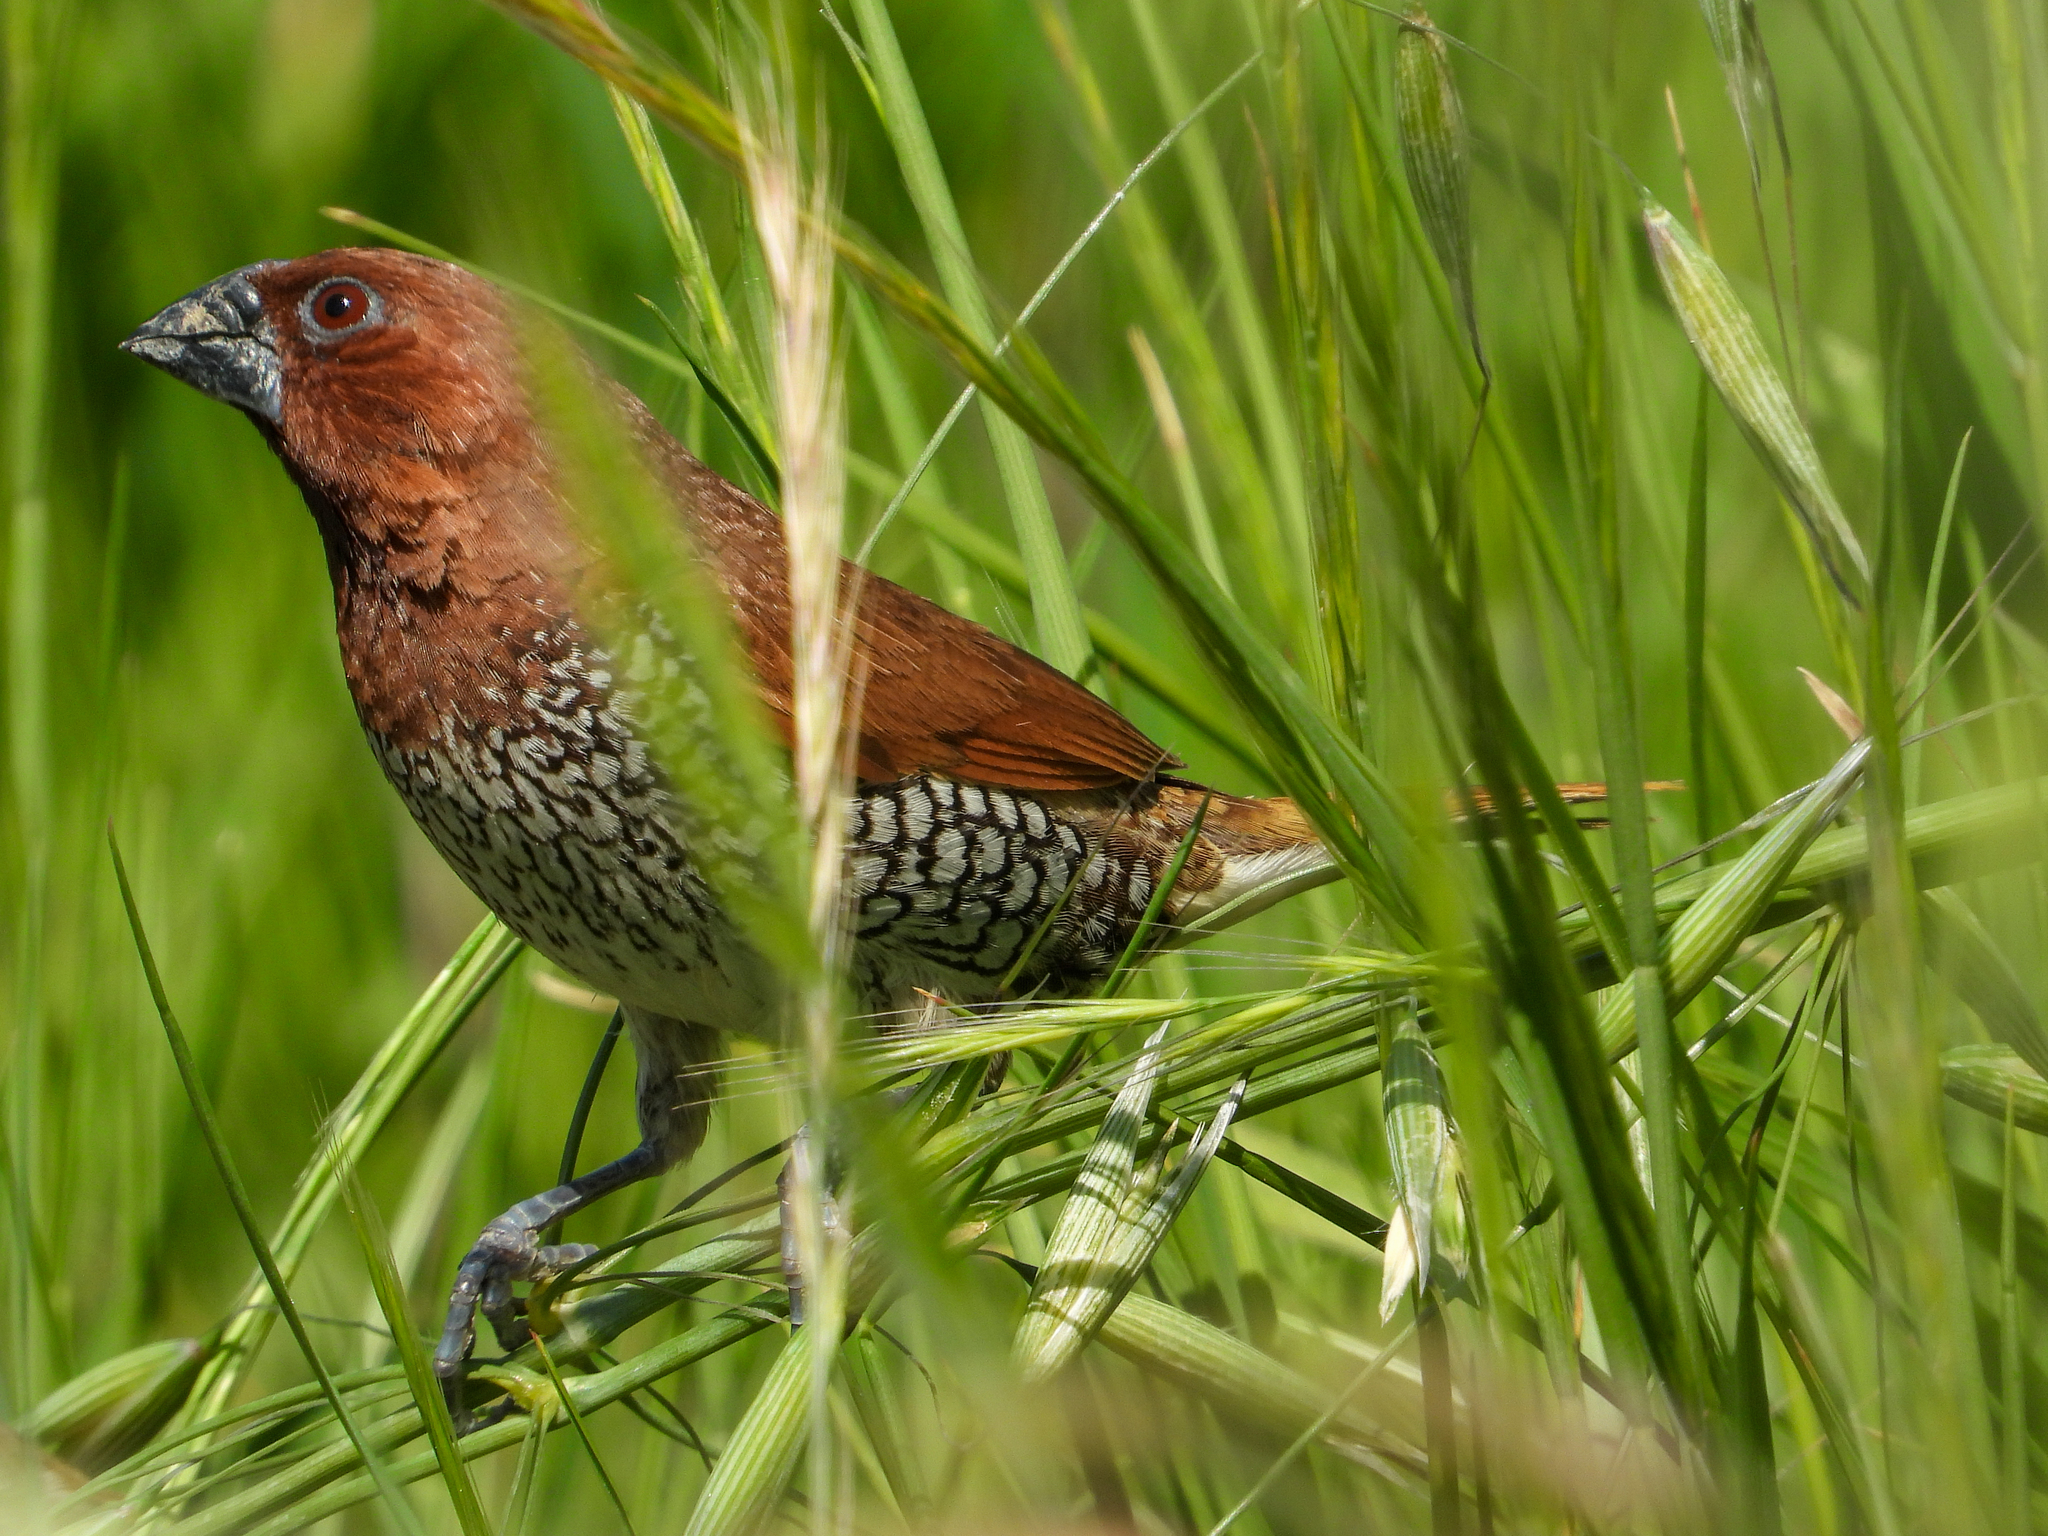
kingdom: Animalia
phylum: Chordata
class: Aves
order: Passeriformes
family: Estrildidae
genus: Lonchura
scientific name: Lonchura punctulata
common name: Scaly-breasted munia
